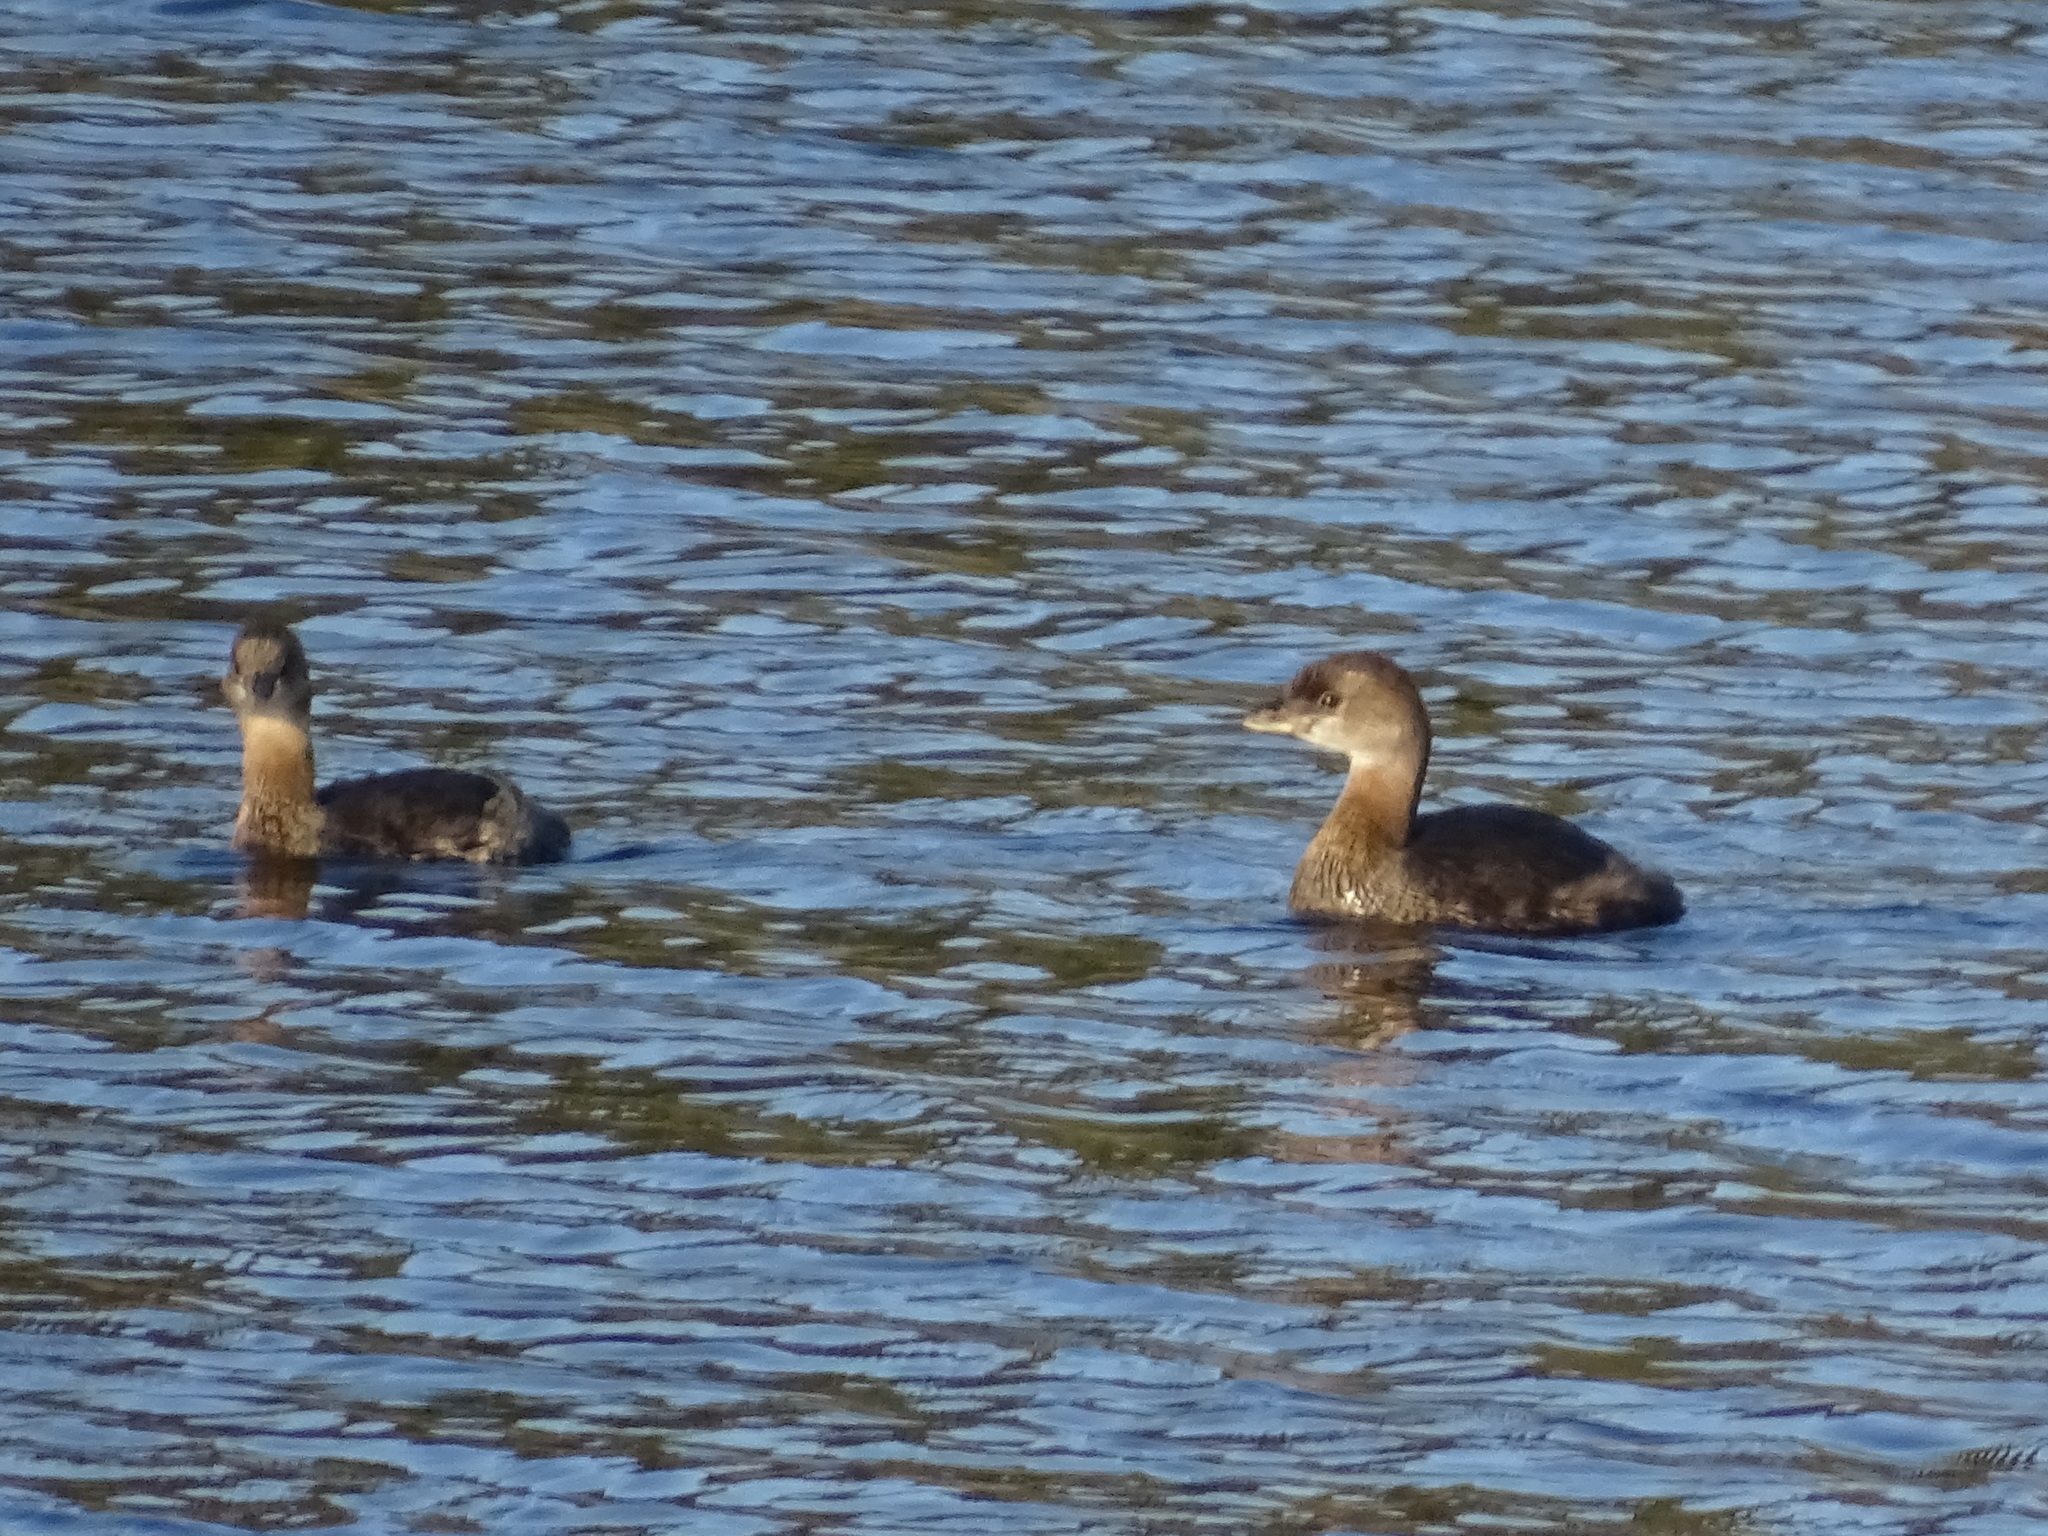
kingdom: Animalia
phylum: Chordata
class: Aves
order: Podicipediformes
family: Podicipedidae
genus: Podilymbus
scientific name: Podilymbus podiceps
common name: Pied-billed grebe
